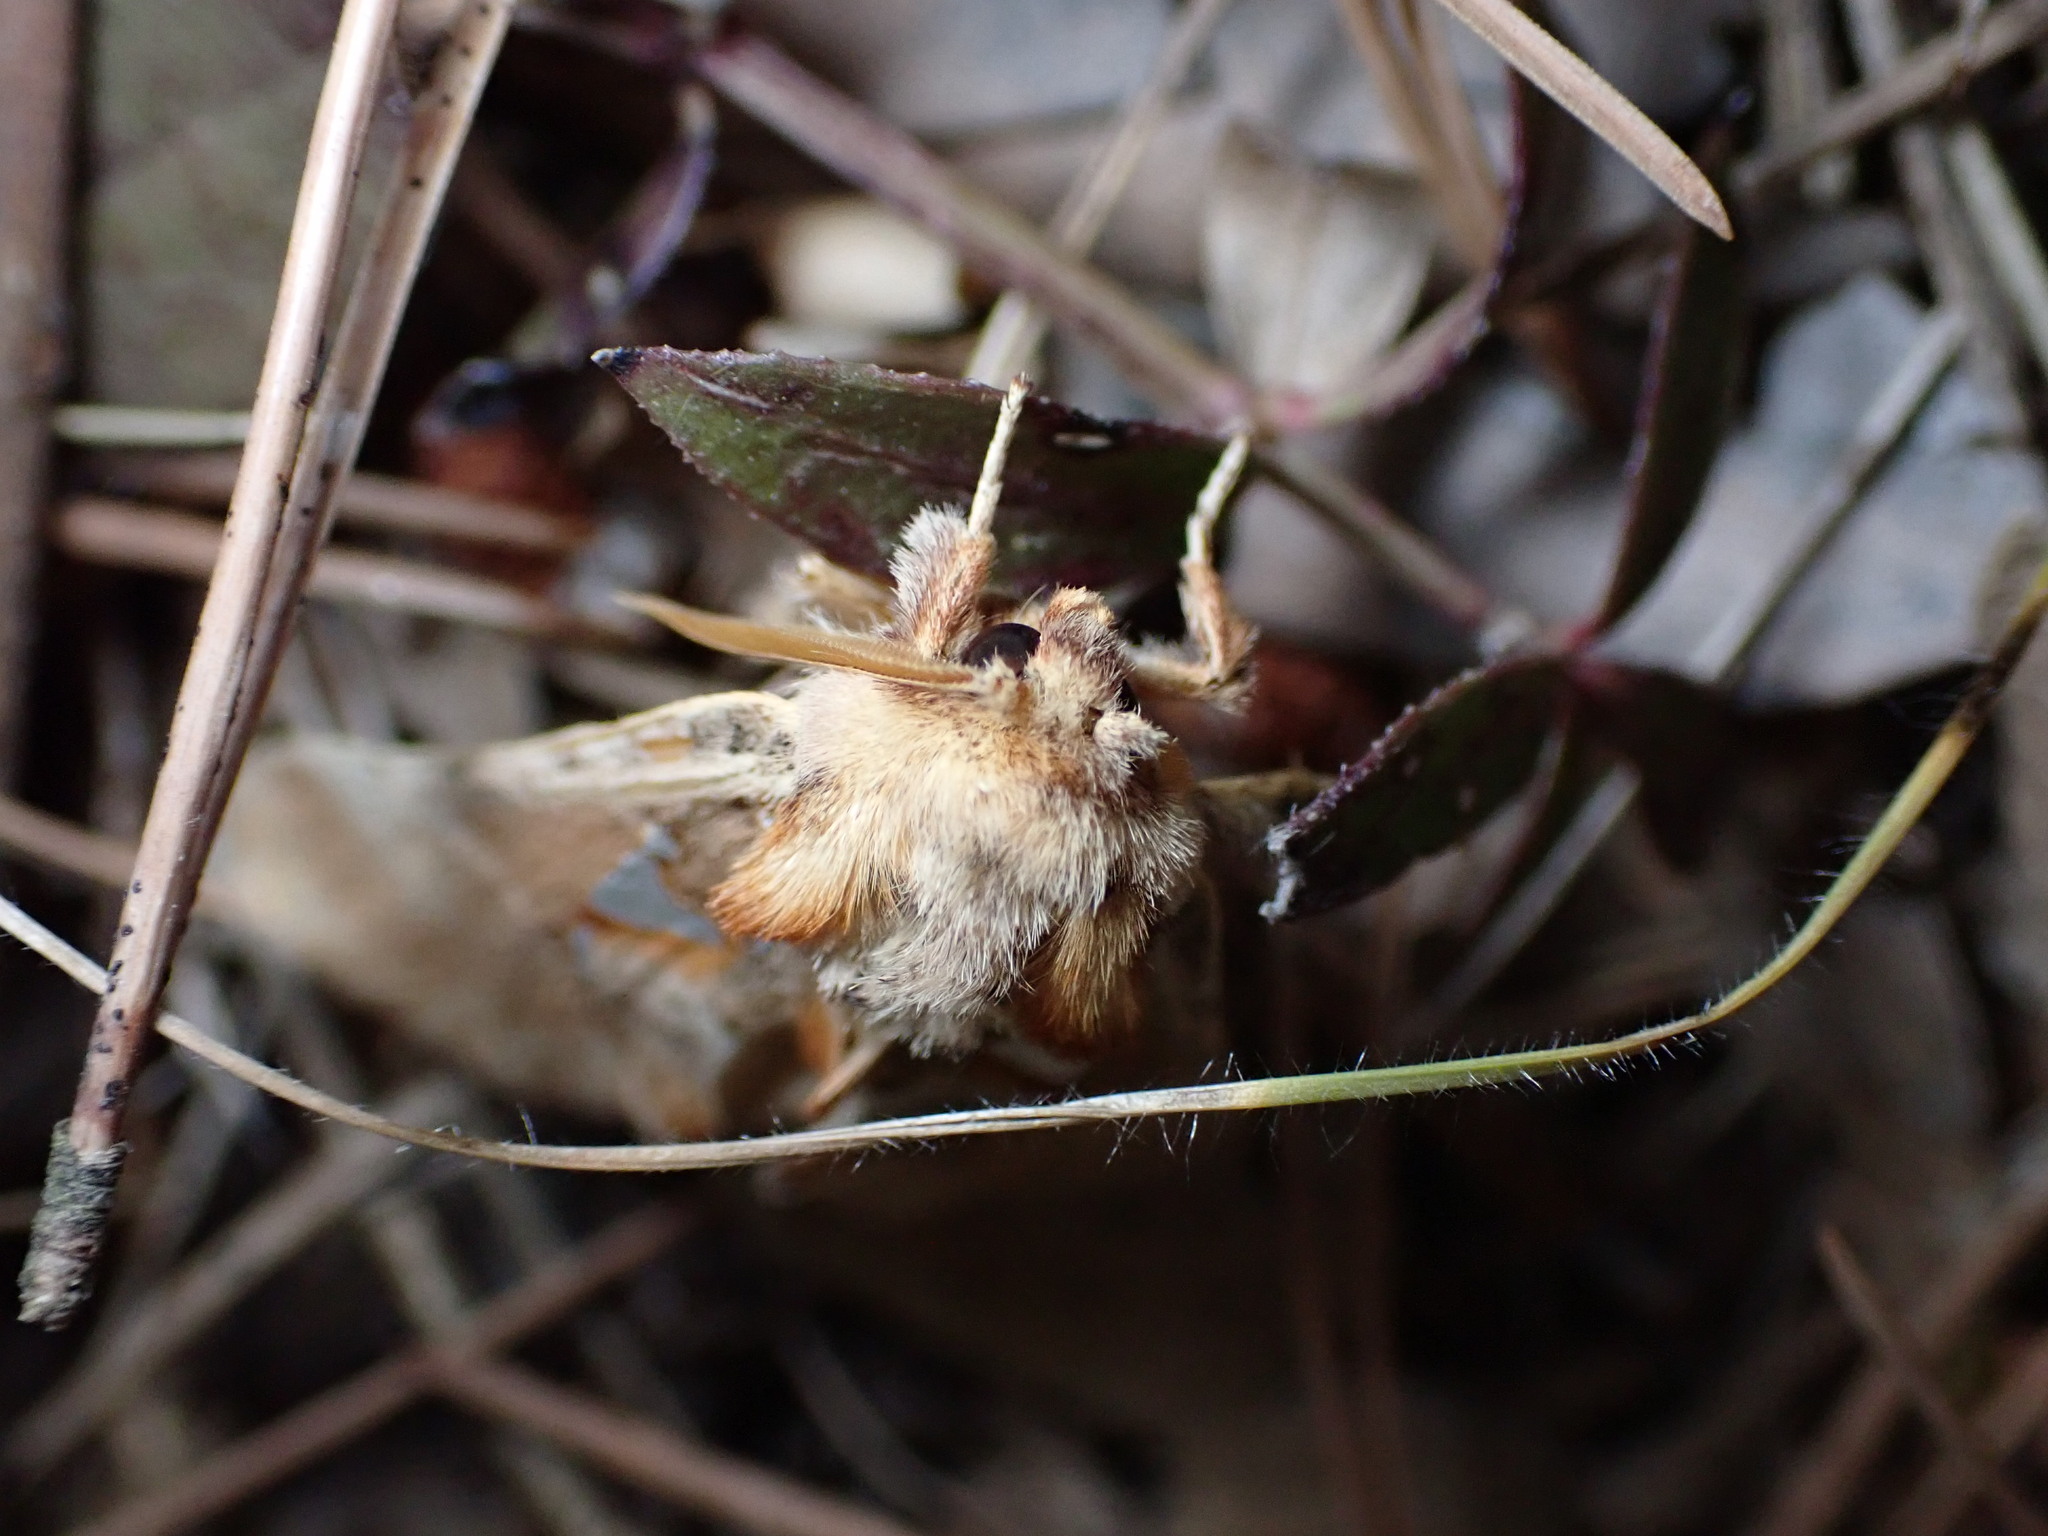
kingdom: Animalia
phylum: Arthropoda
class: Insecta
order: Lepidoptera
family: Notodontidae
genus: Spatalia
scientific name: Spatalia argentina
